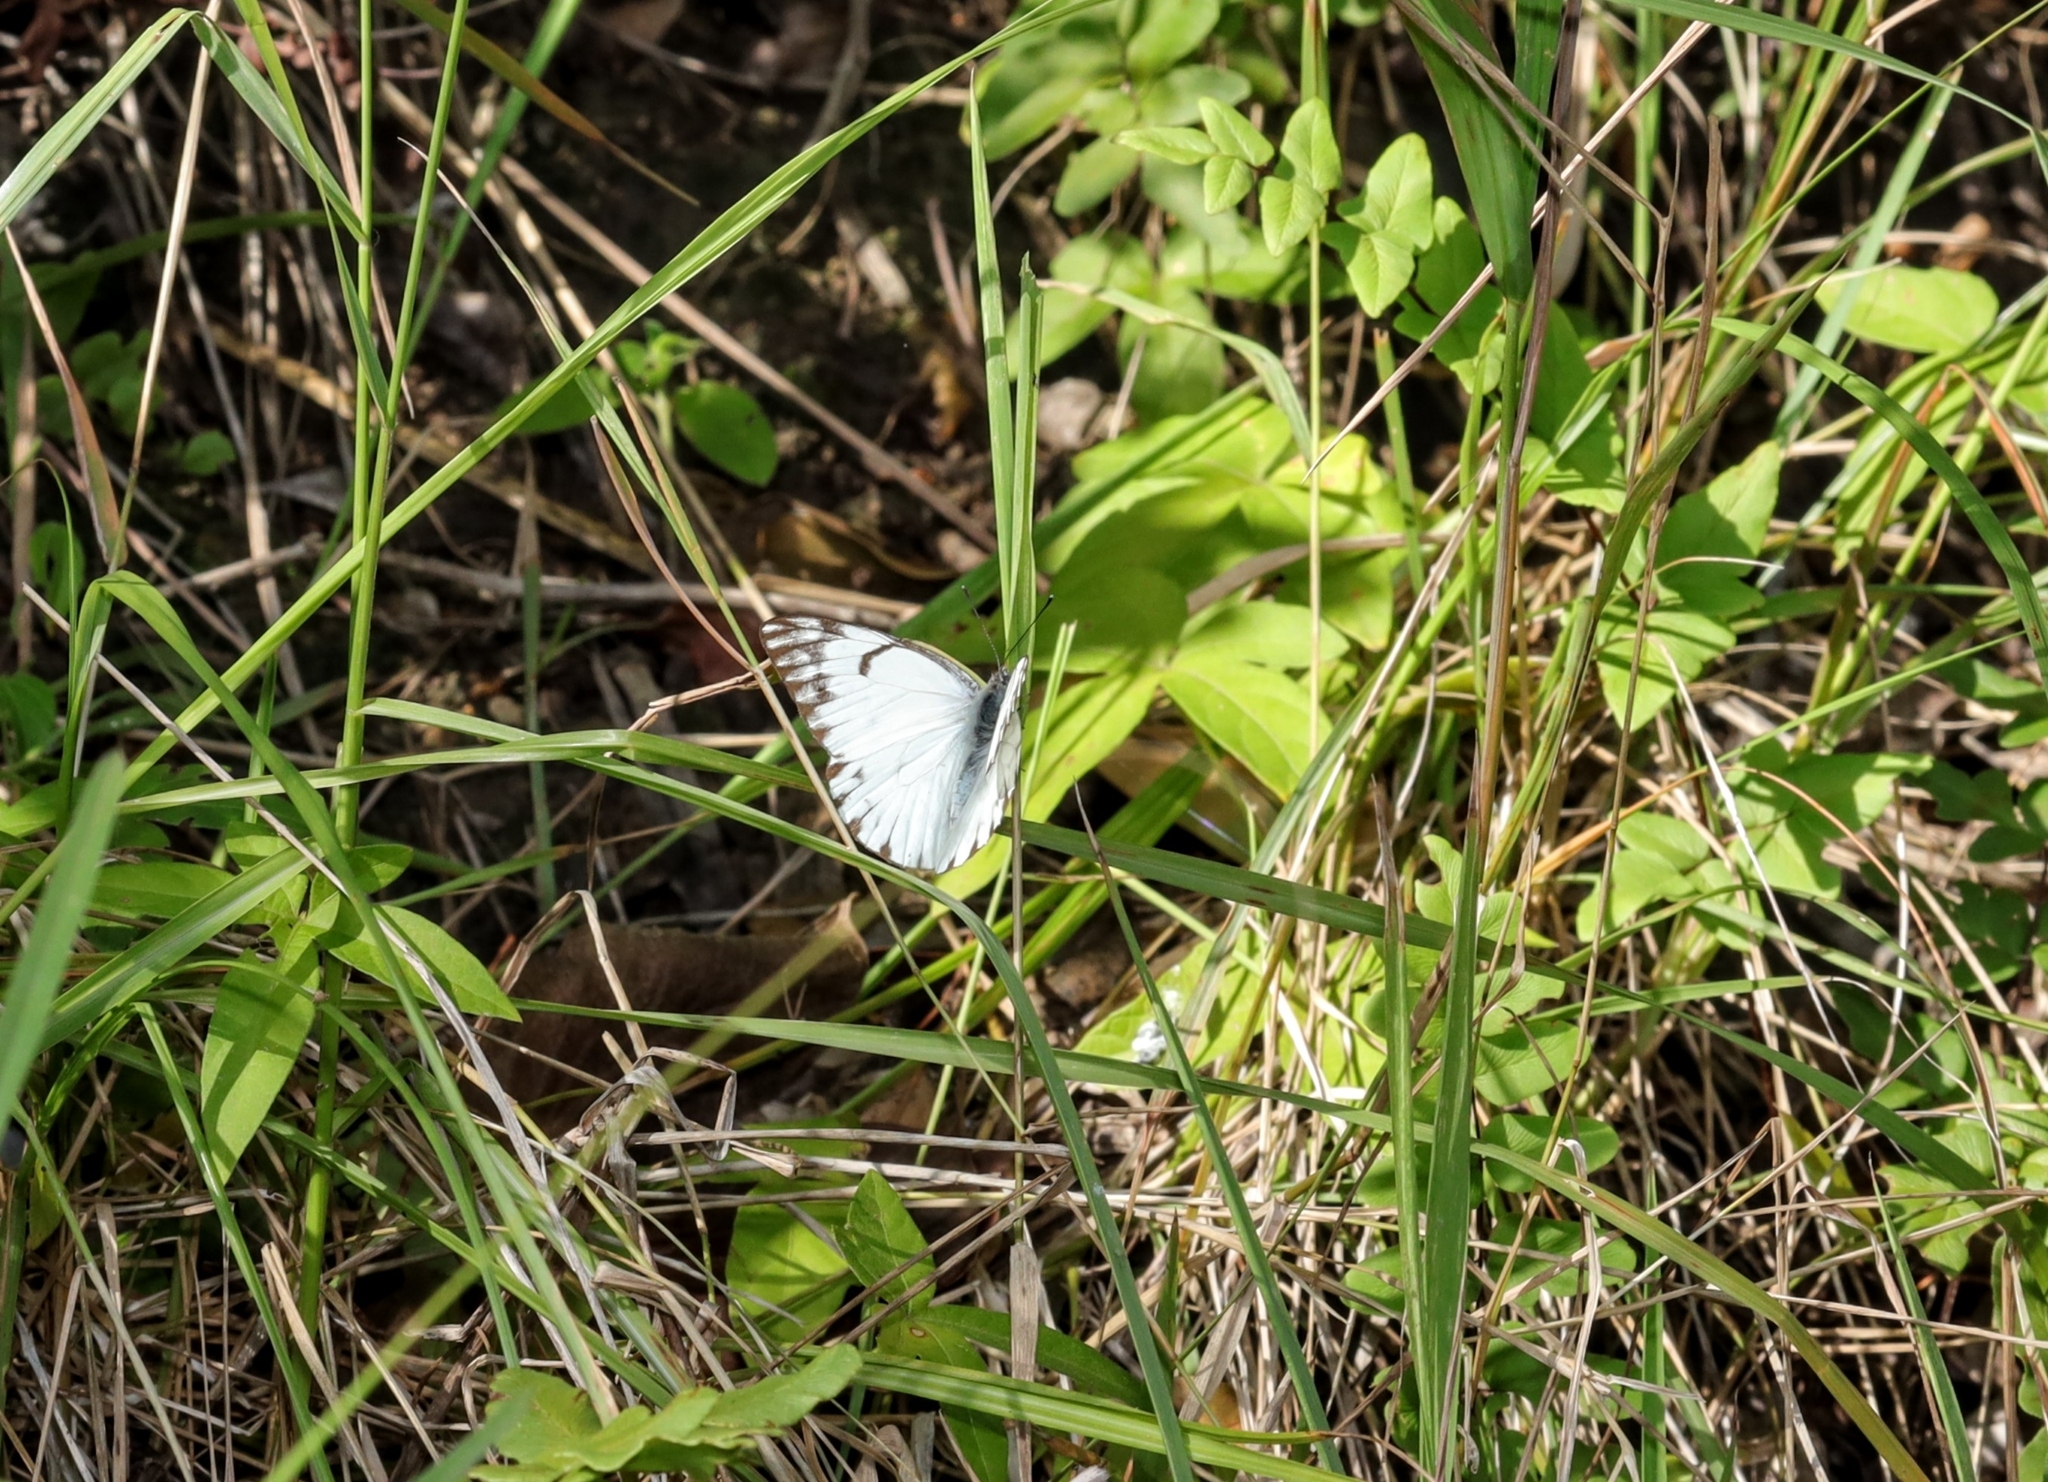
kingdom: Animalia
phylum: Arthropoda
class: Insecta
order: Lepidoptera
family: Pieridae
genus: Belenois
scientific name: Belenois gidica
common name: Pointed caper white
